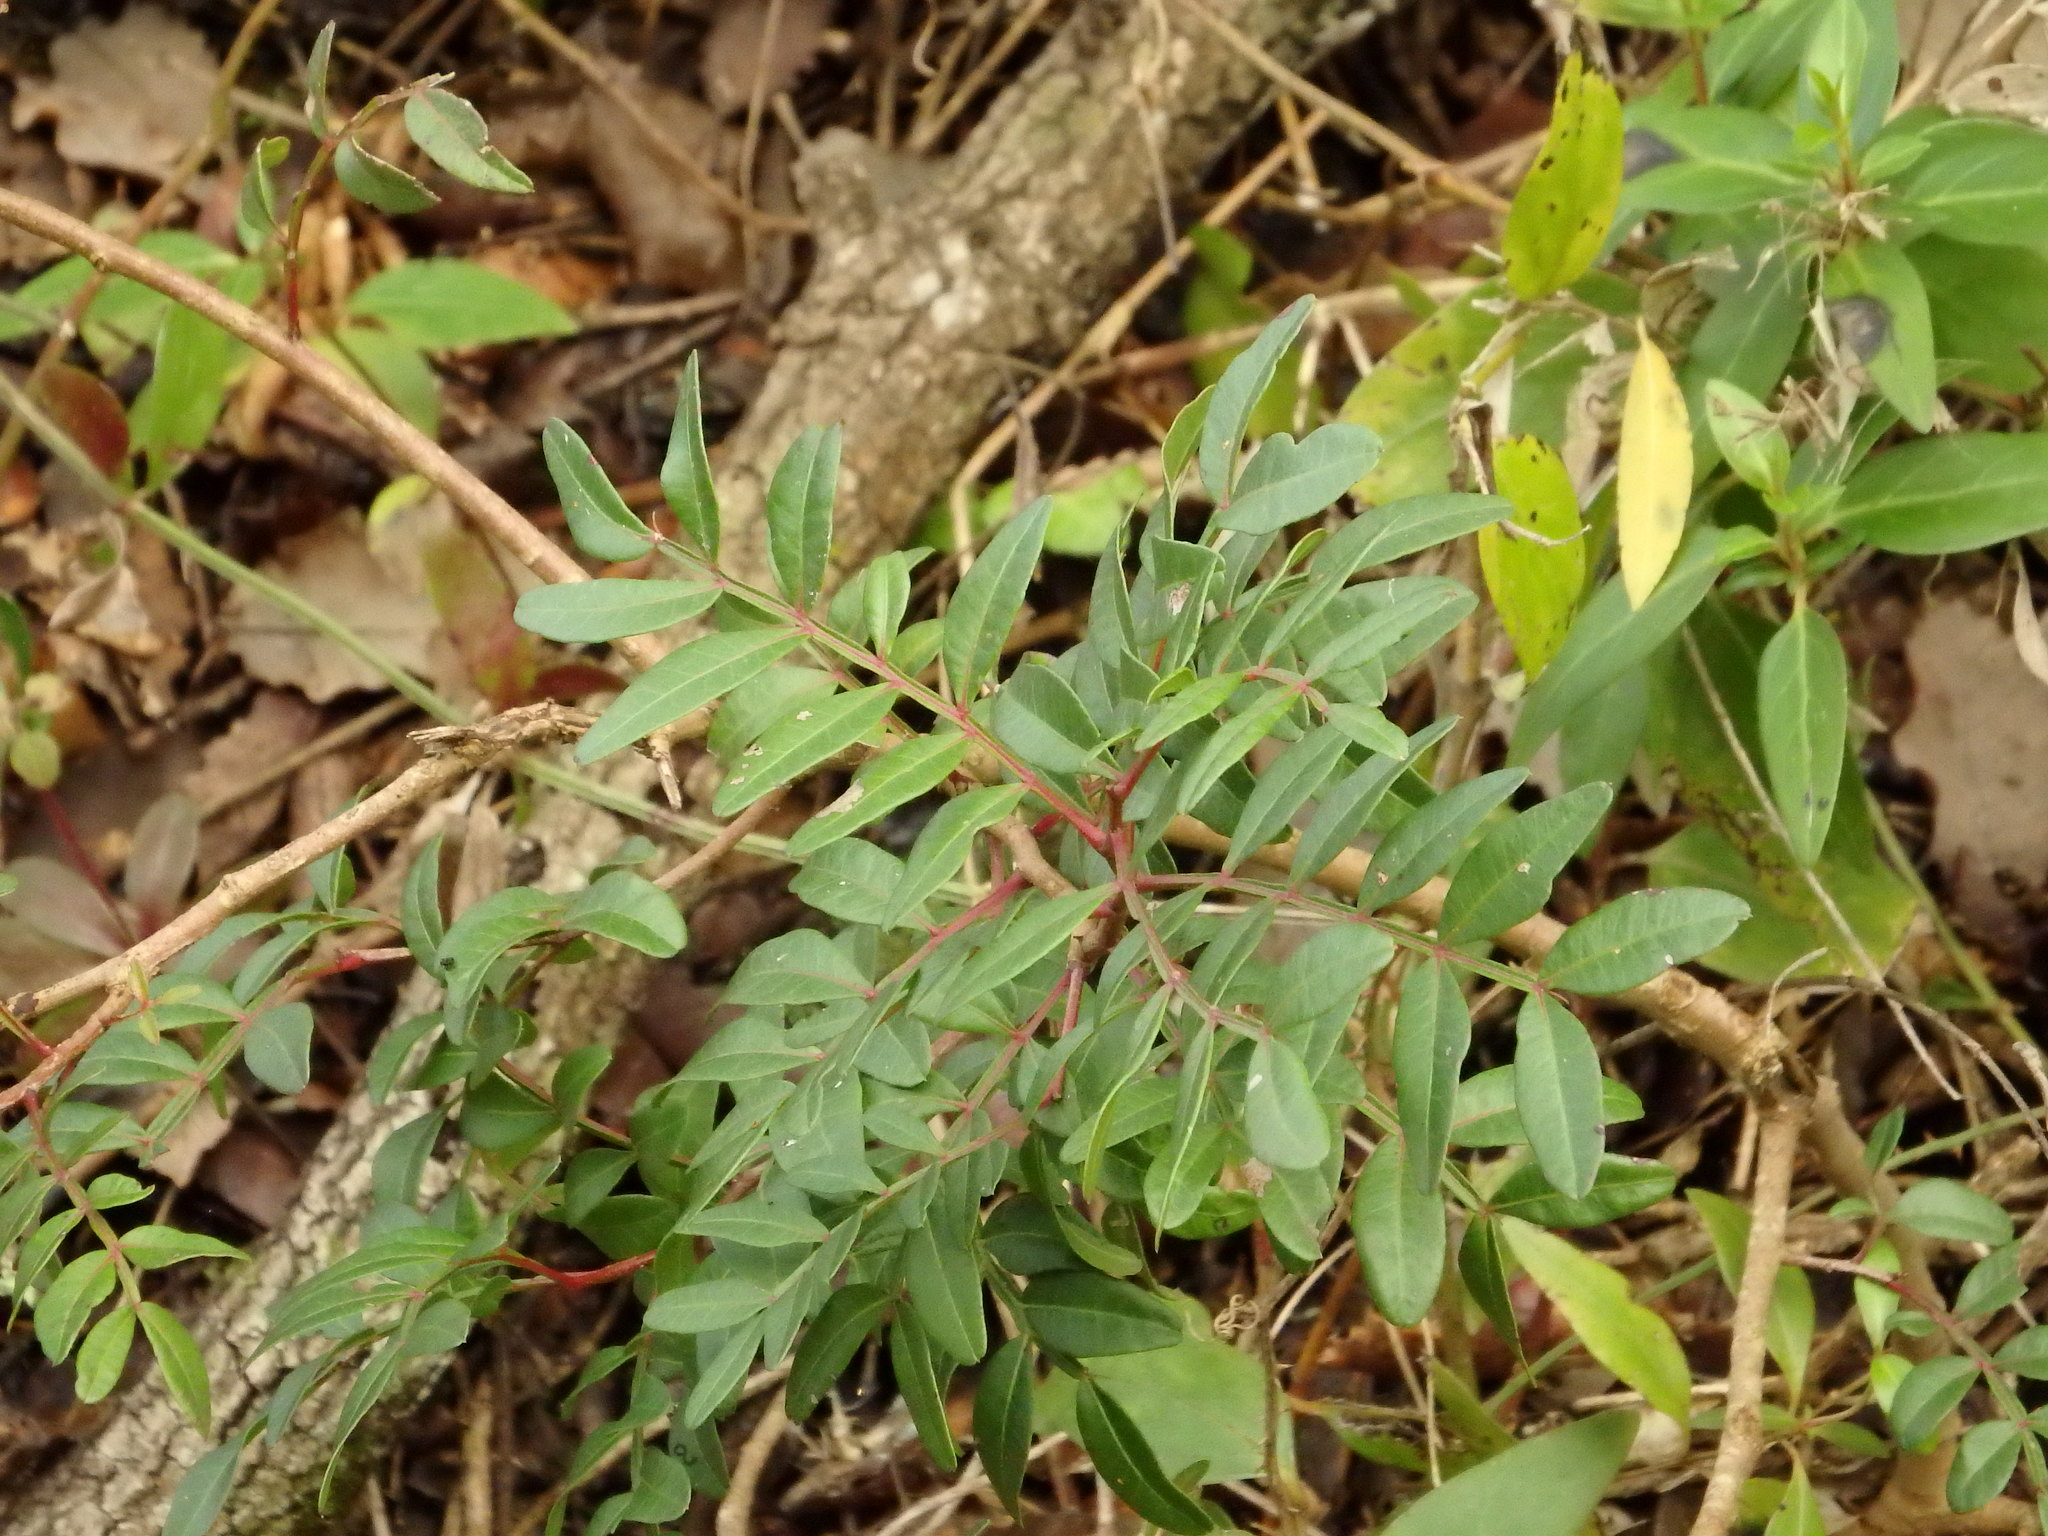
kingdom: Plantae
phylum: Tracheophyta
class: Magnoliopsida
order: Sapindales
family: Anacardiaceae
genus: Pistacia
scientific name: Pistacia lentiscus
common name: Lentisk
